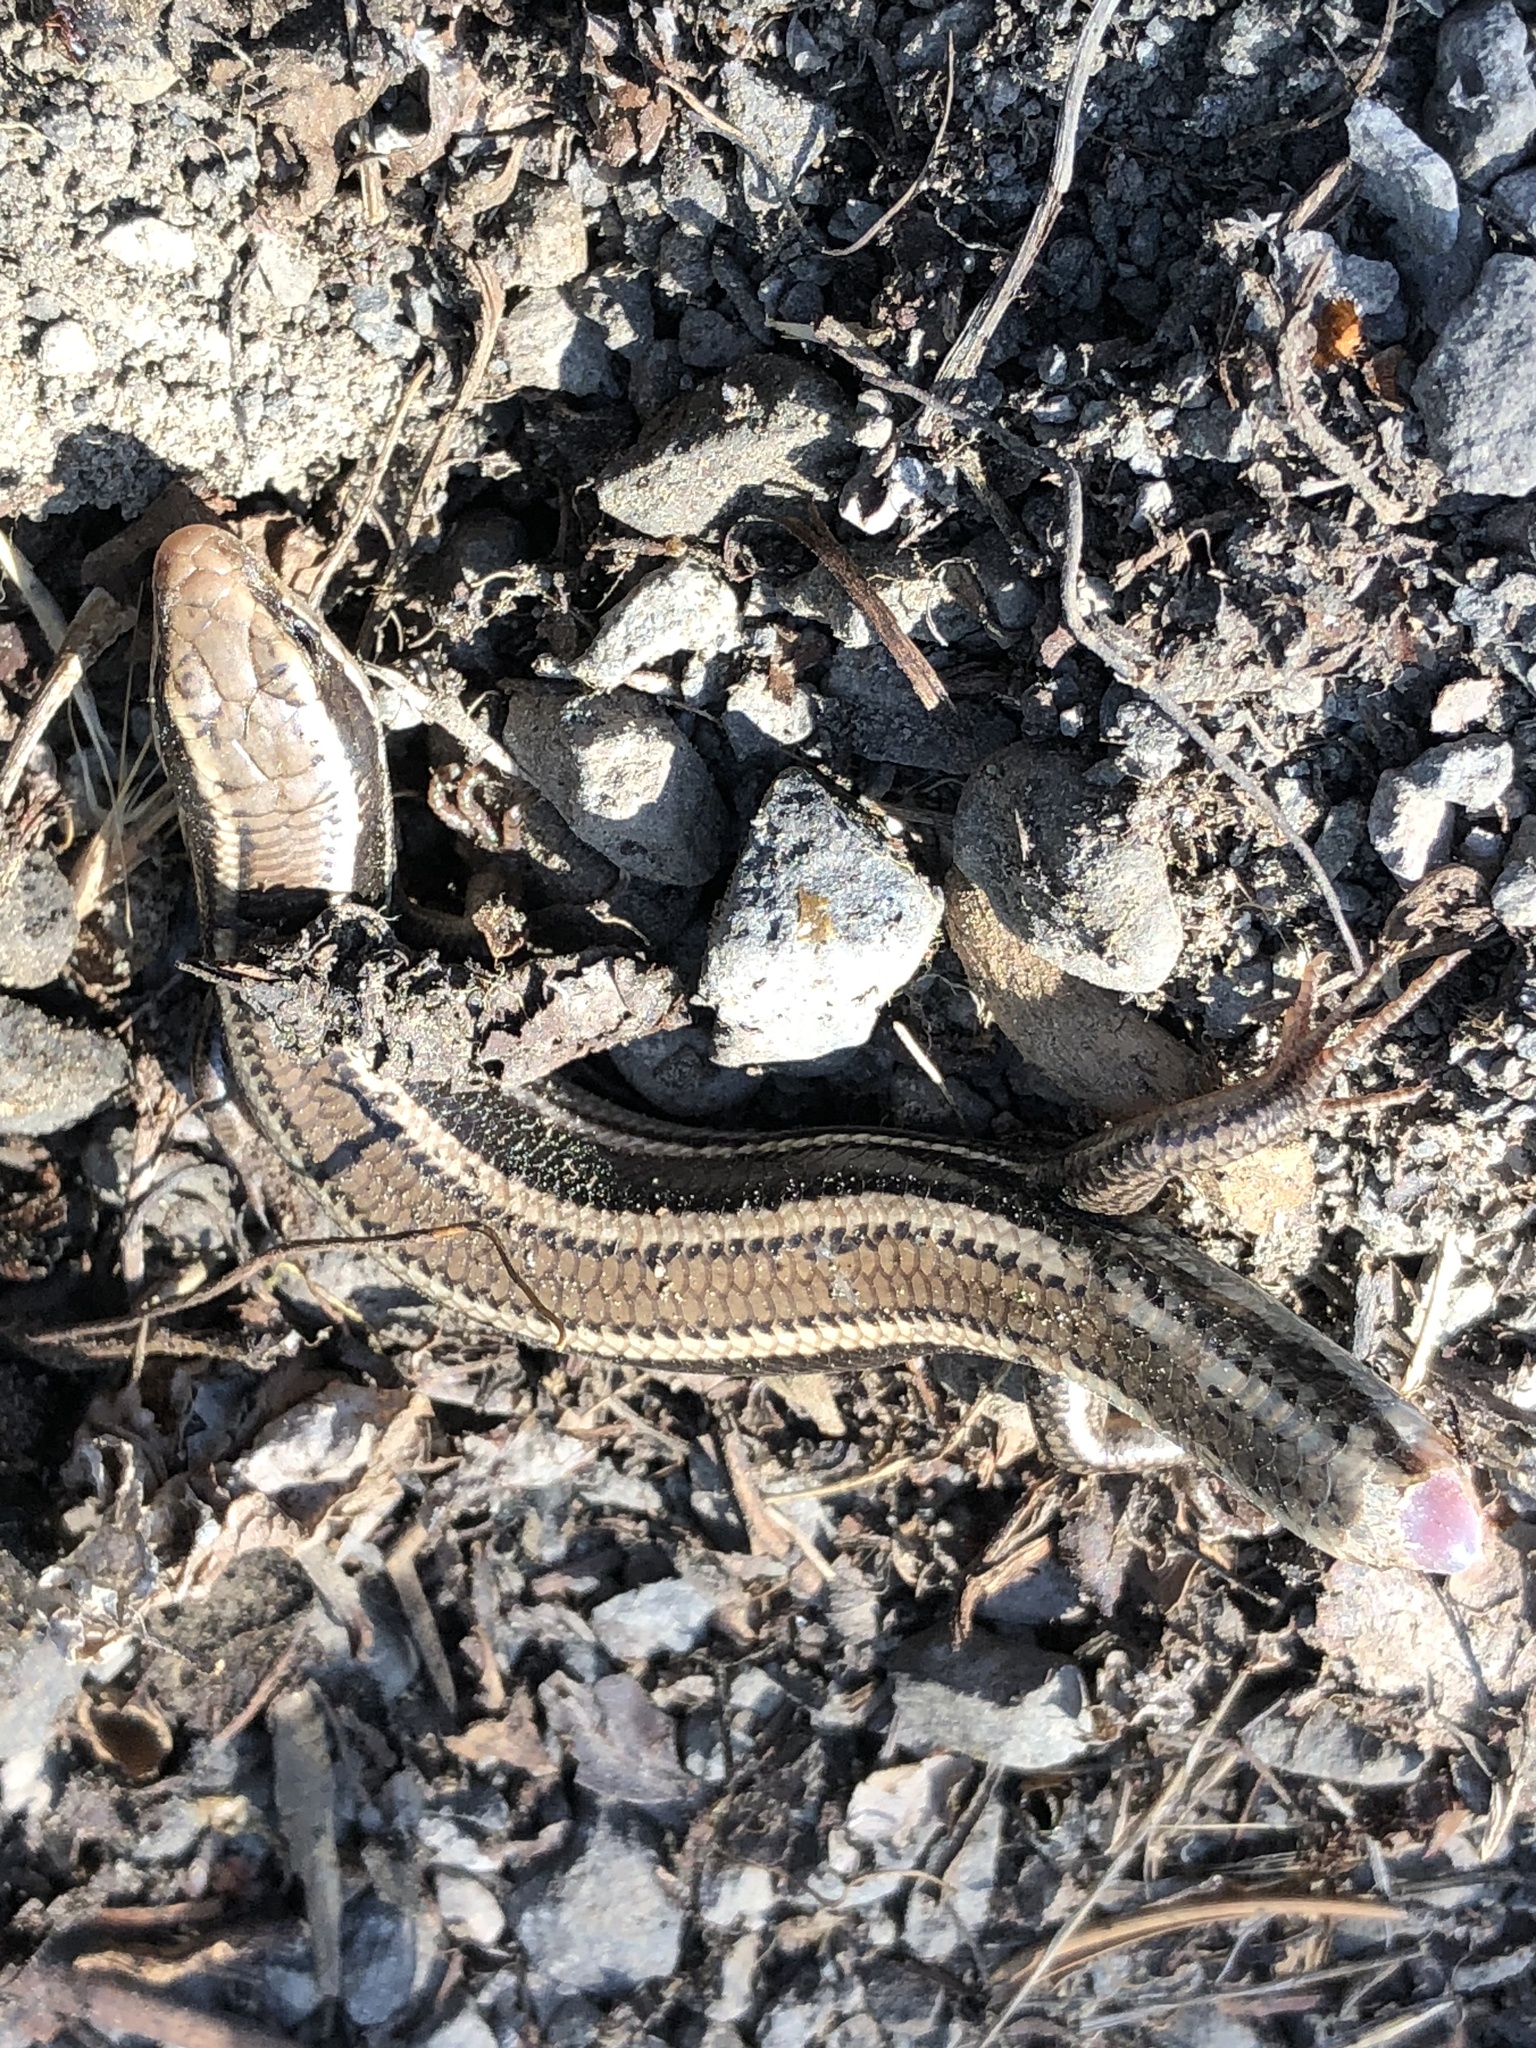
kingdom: Animalia
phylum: Chordata
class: Squamata
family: Scincidae
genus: Plestiodon
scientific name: Plestiodon skiltonianus
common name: Coronado island skink [interparietalis]
